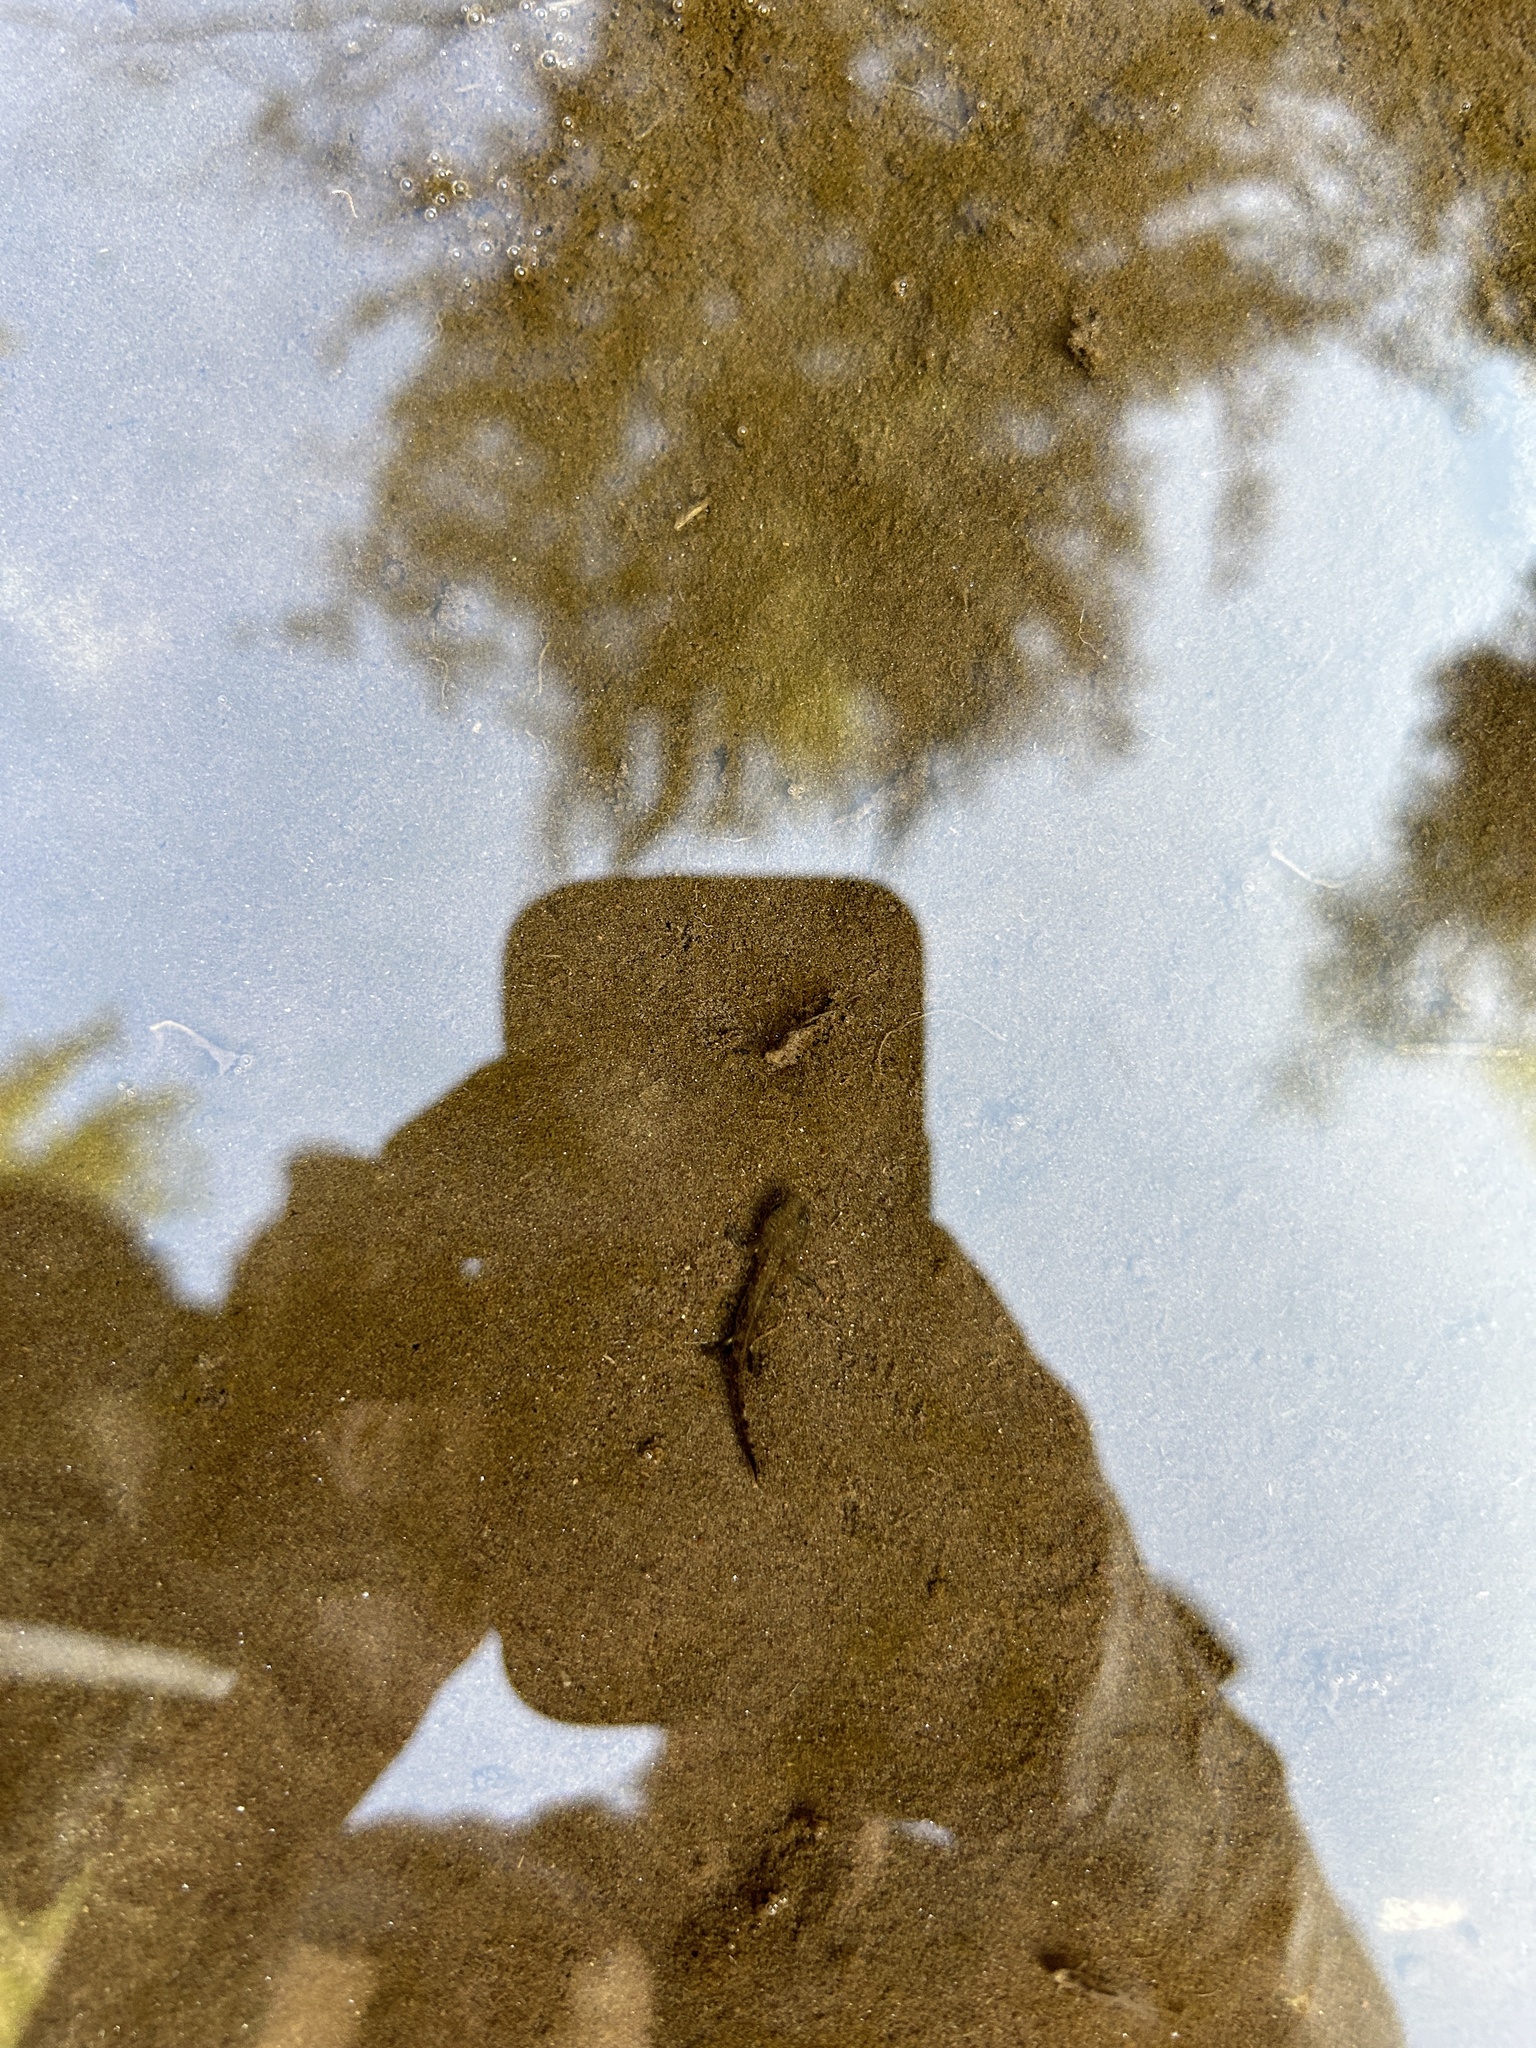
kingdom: Animalia
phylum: Chordata
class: Amphibia
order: Caudata
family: Salamandridae
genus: Salamandra
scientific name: Salamandra salamandra
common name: Fire salamander
